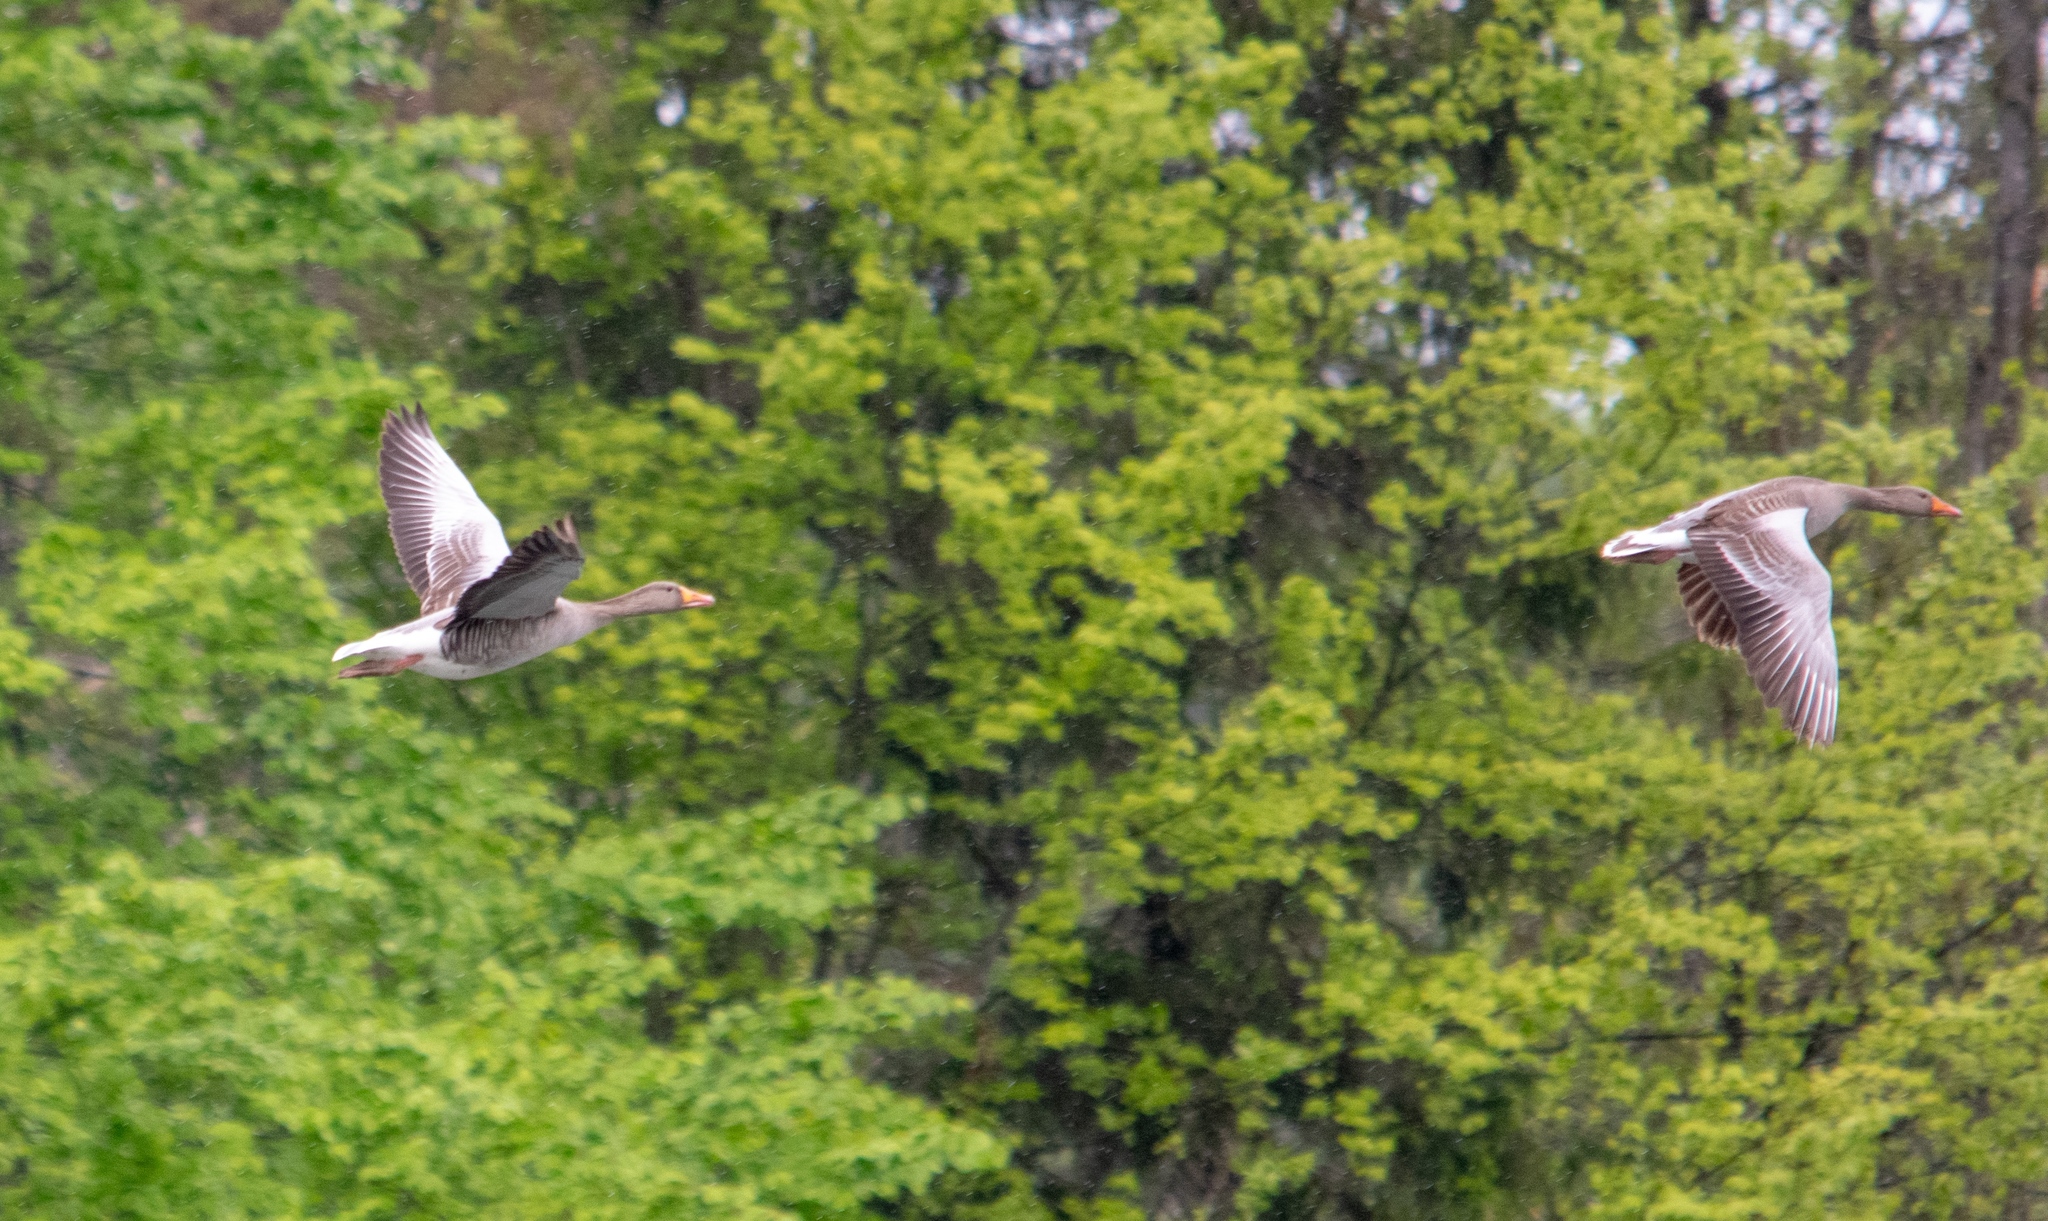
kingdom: Animalia
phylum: Chordata
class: Aves
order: Anseriformes
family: Anatidae
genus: Anser
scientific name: Anser anser
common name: Greylag goose
